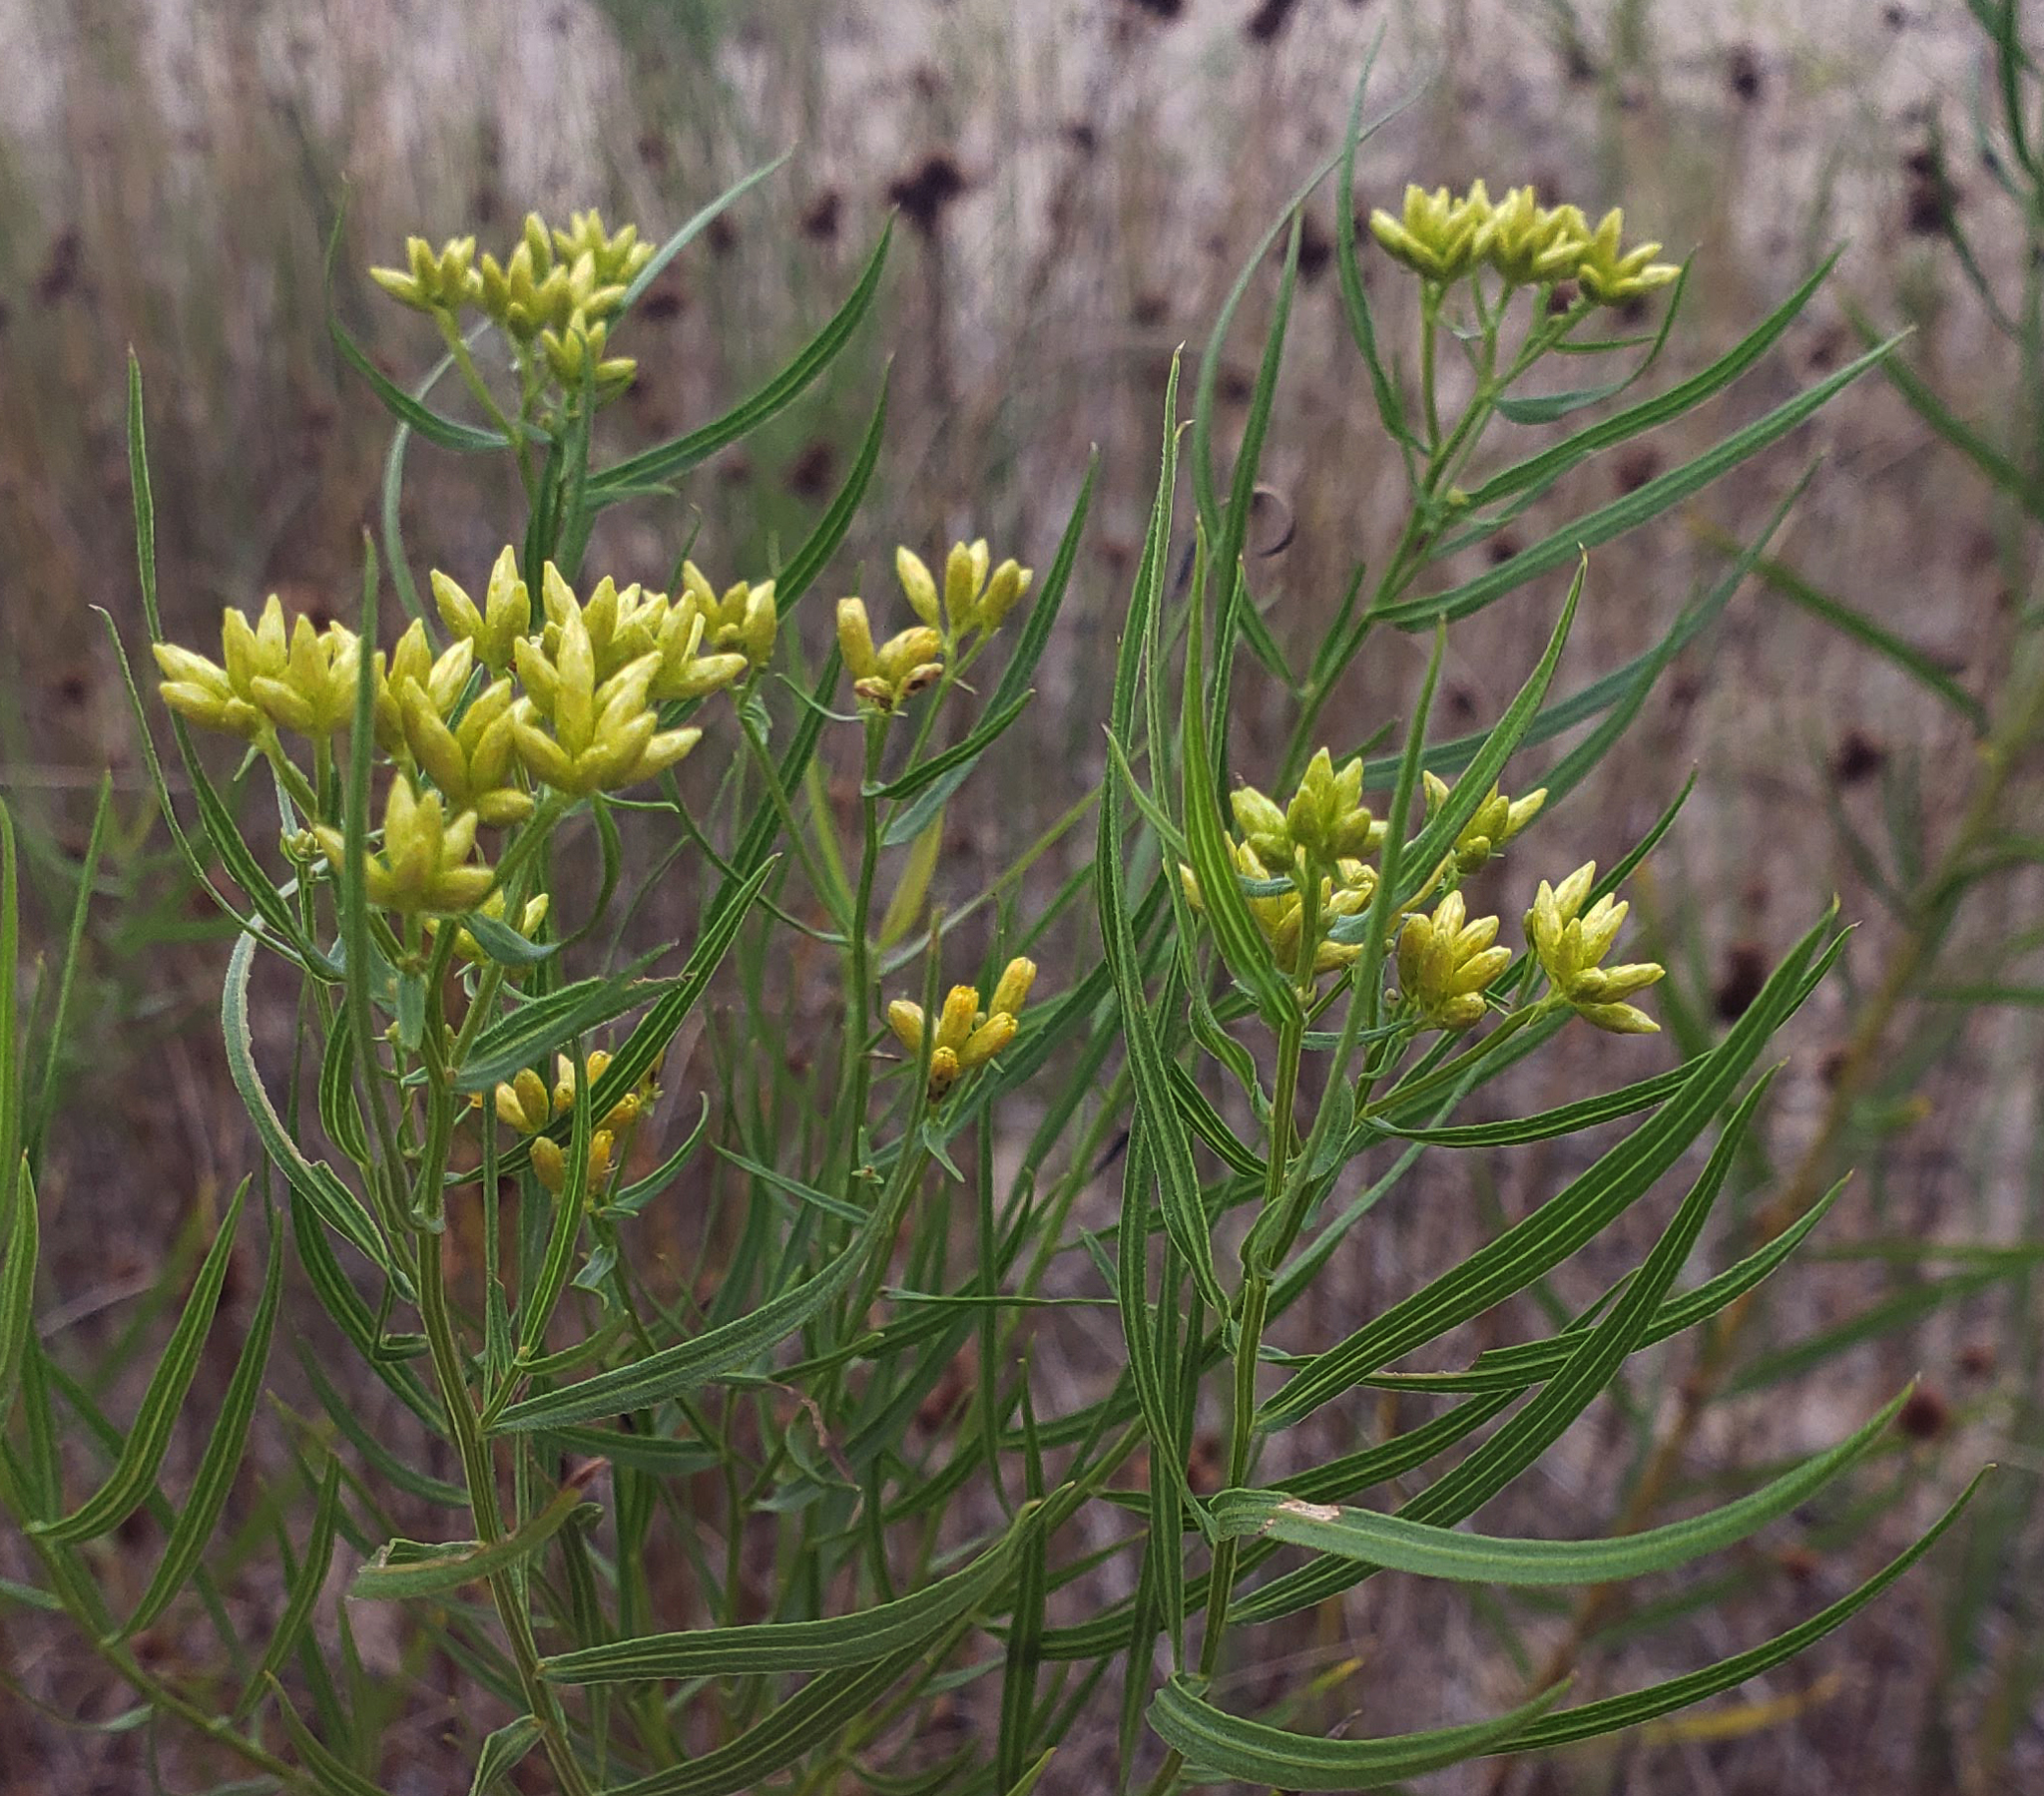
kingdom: Plantae
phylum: Tracheophyta
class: Magnoliopsida
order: Asterales
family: Asteraceae
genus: Euthamia
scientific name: Euthamia graminifolia
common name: Common goldentop
